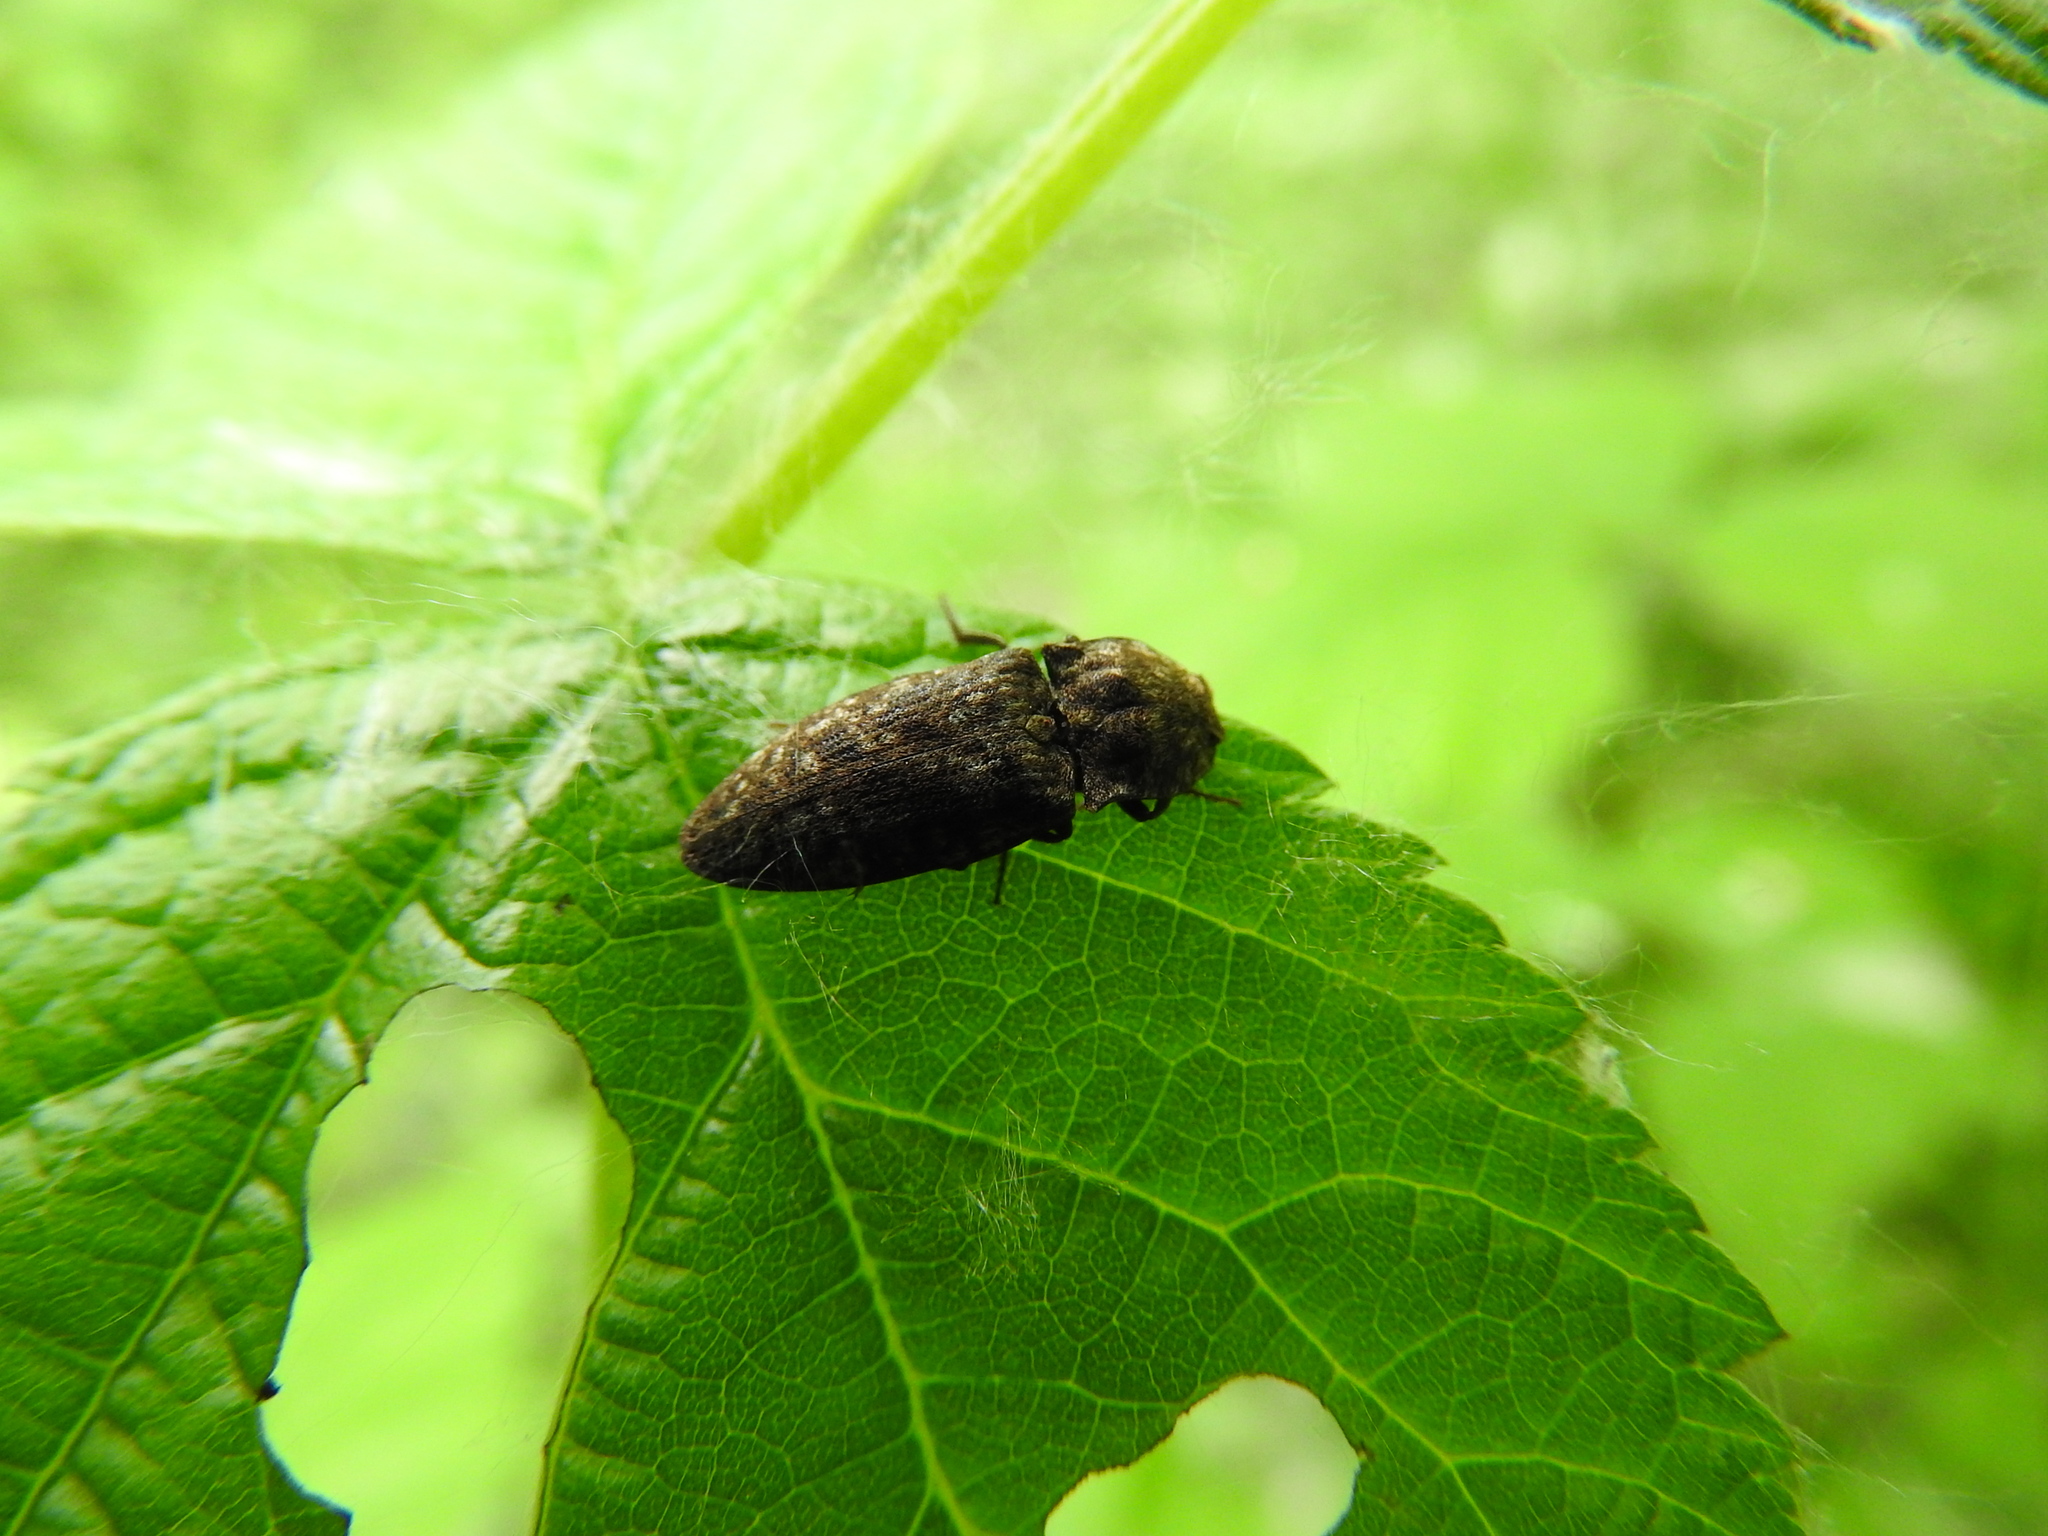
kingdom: Animalia
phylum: Arthropoda
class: Insecta
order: Coleoptera
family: Elateridae
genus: Agrypnus
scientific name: Agrypnus murinus
